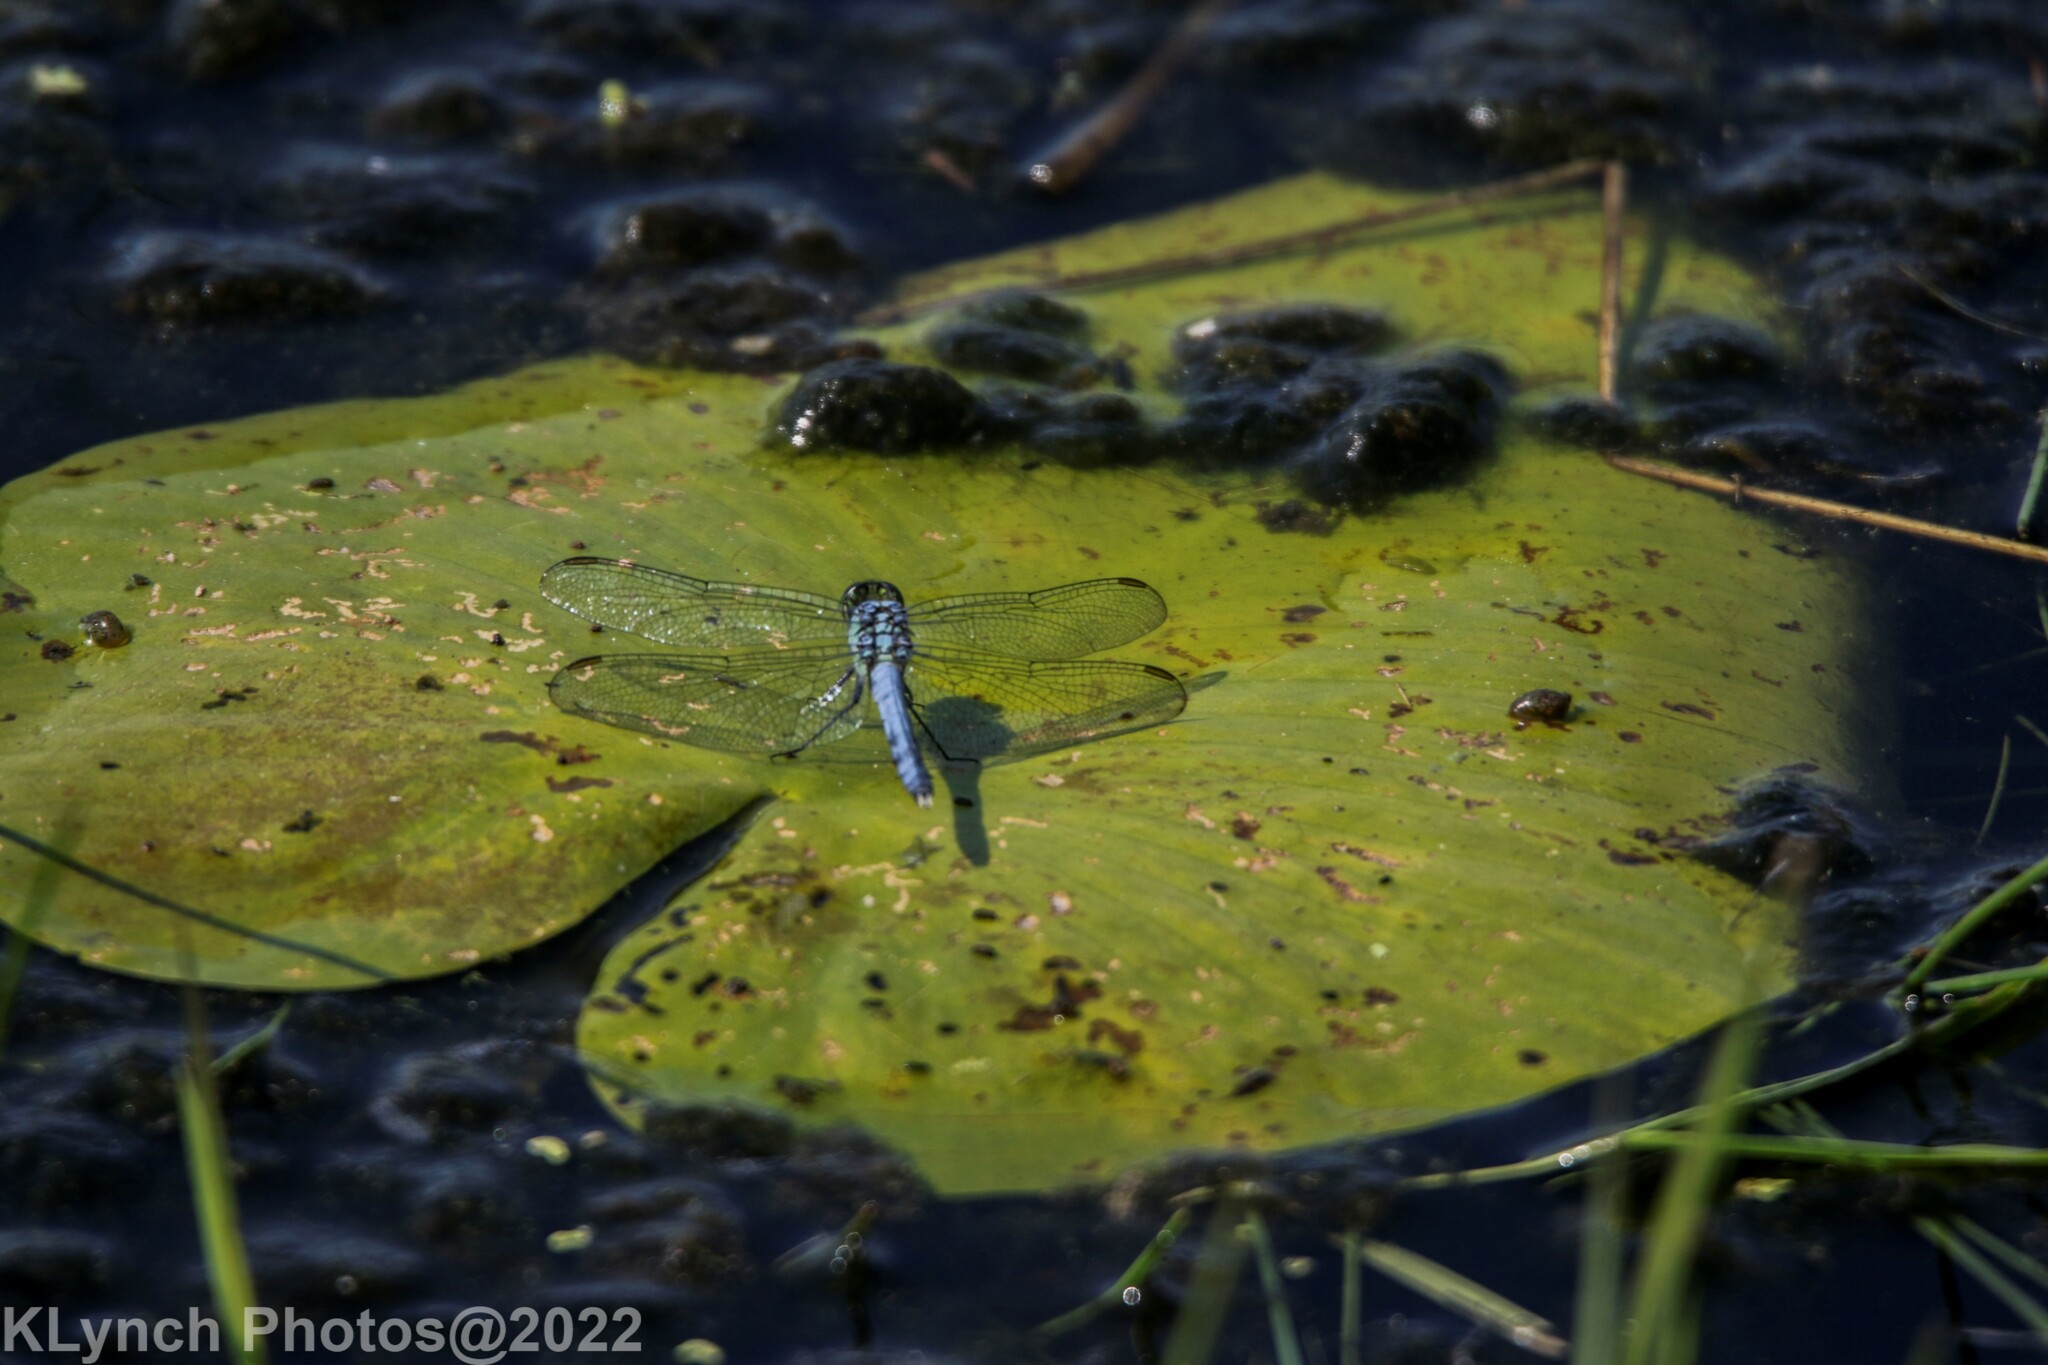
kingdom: Animalia
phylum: Arthropoda
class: Insecta
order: Odonata
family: Libellulidae
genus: Erythemis
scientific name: Erythemis simplicicollis
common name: Eastern pondhawk
